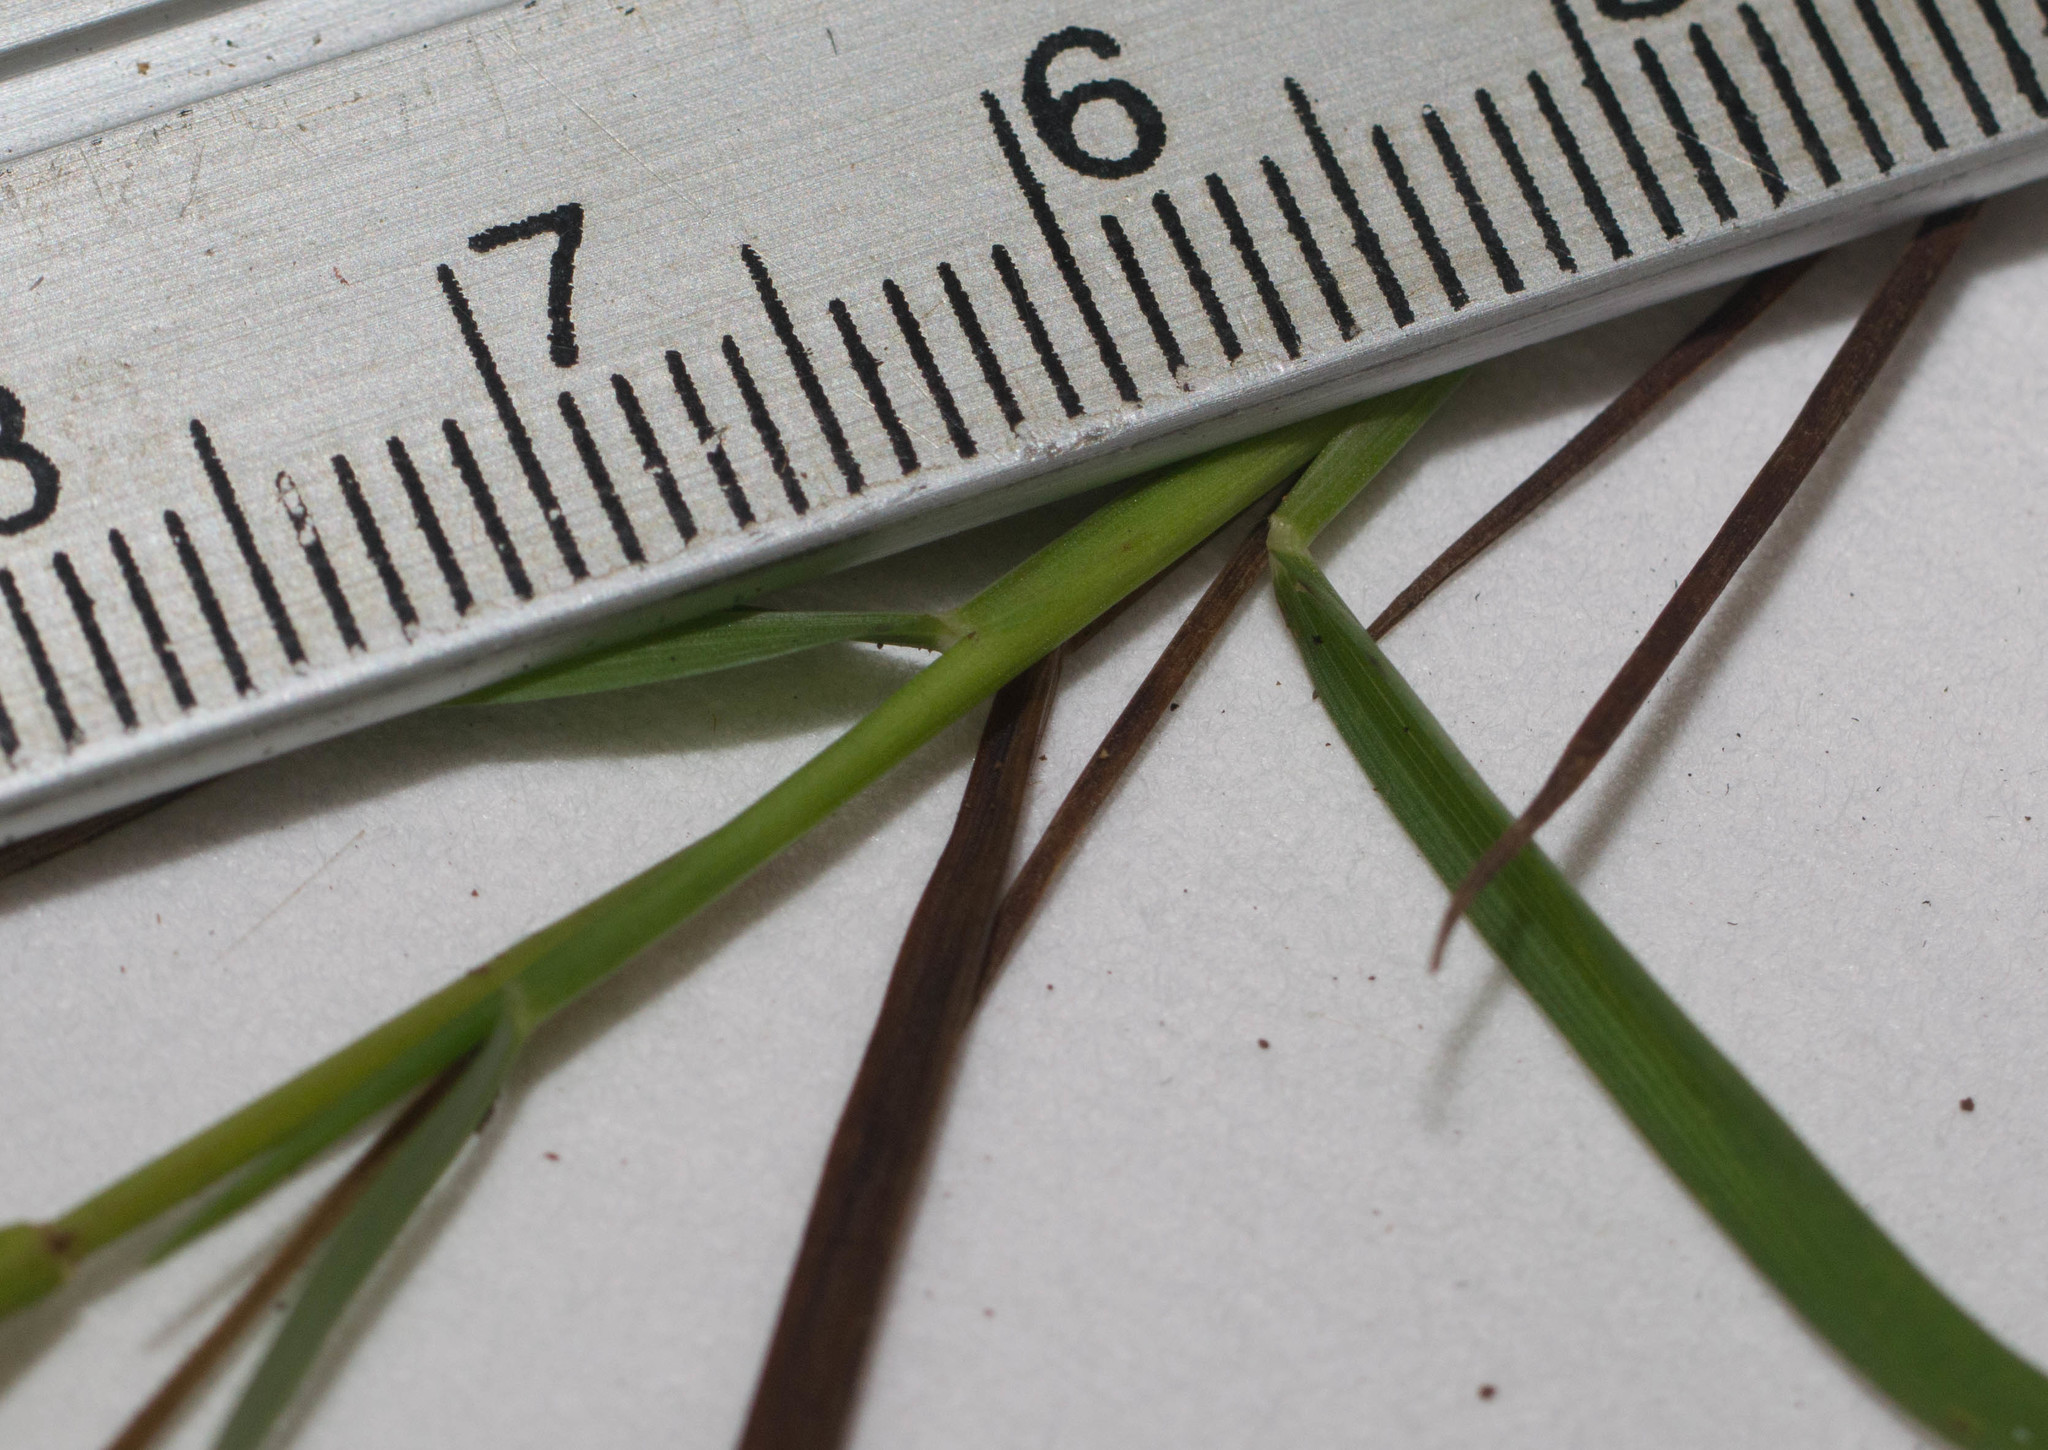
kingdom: Plantae
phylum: Tracheophyta
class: Liliopsida
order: Poales
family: Poaceae
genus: Sacciolepis
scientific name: Sacciolepis indica
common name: Glenwoodgrass
